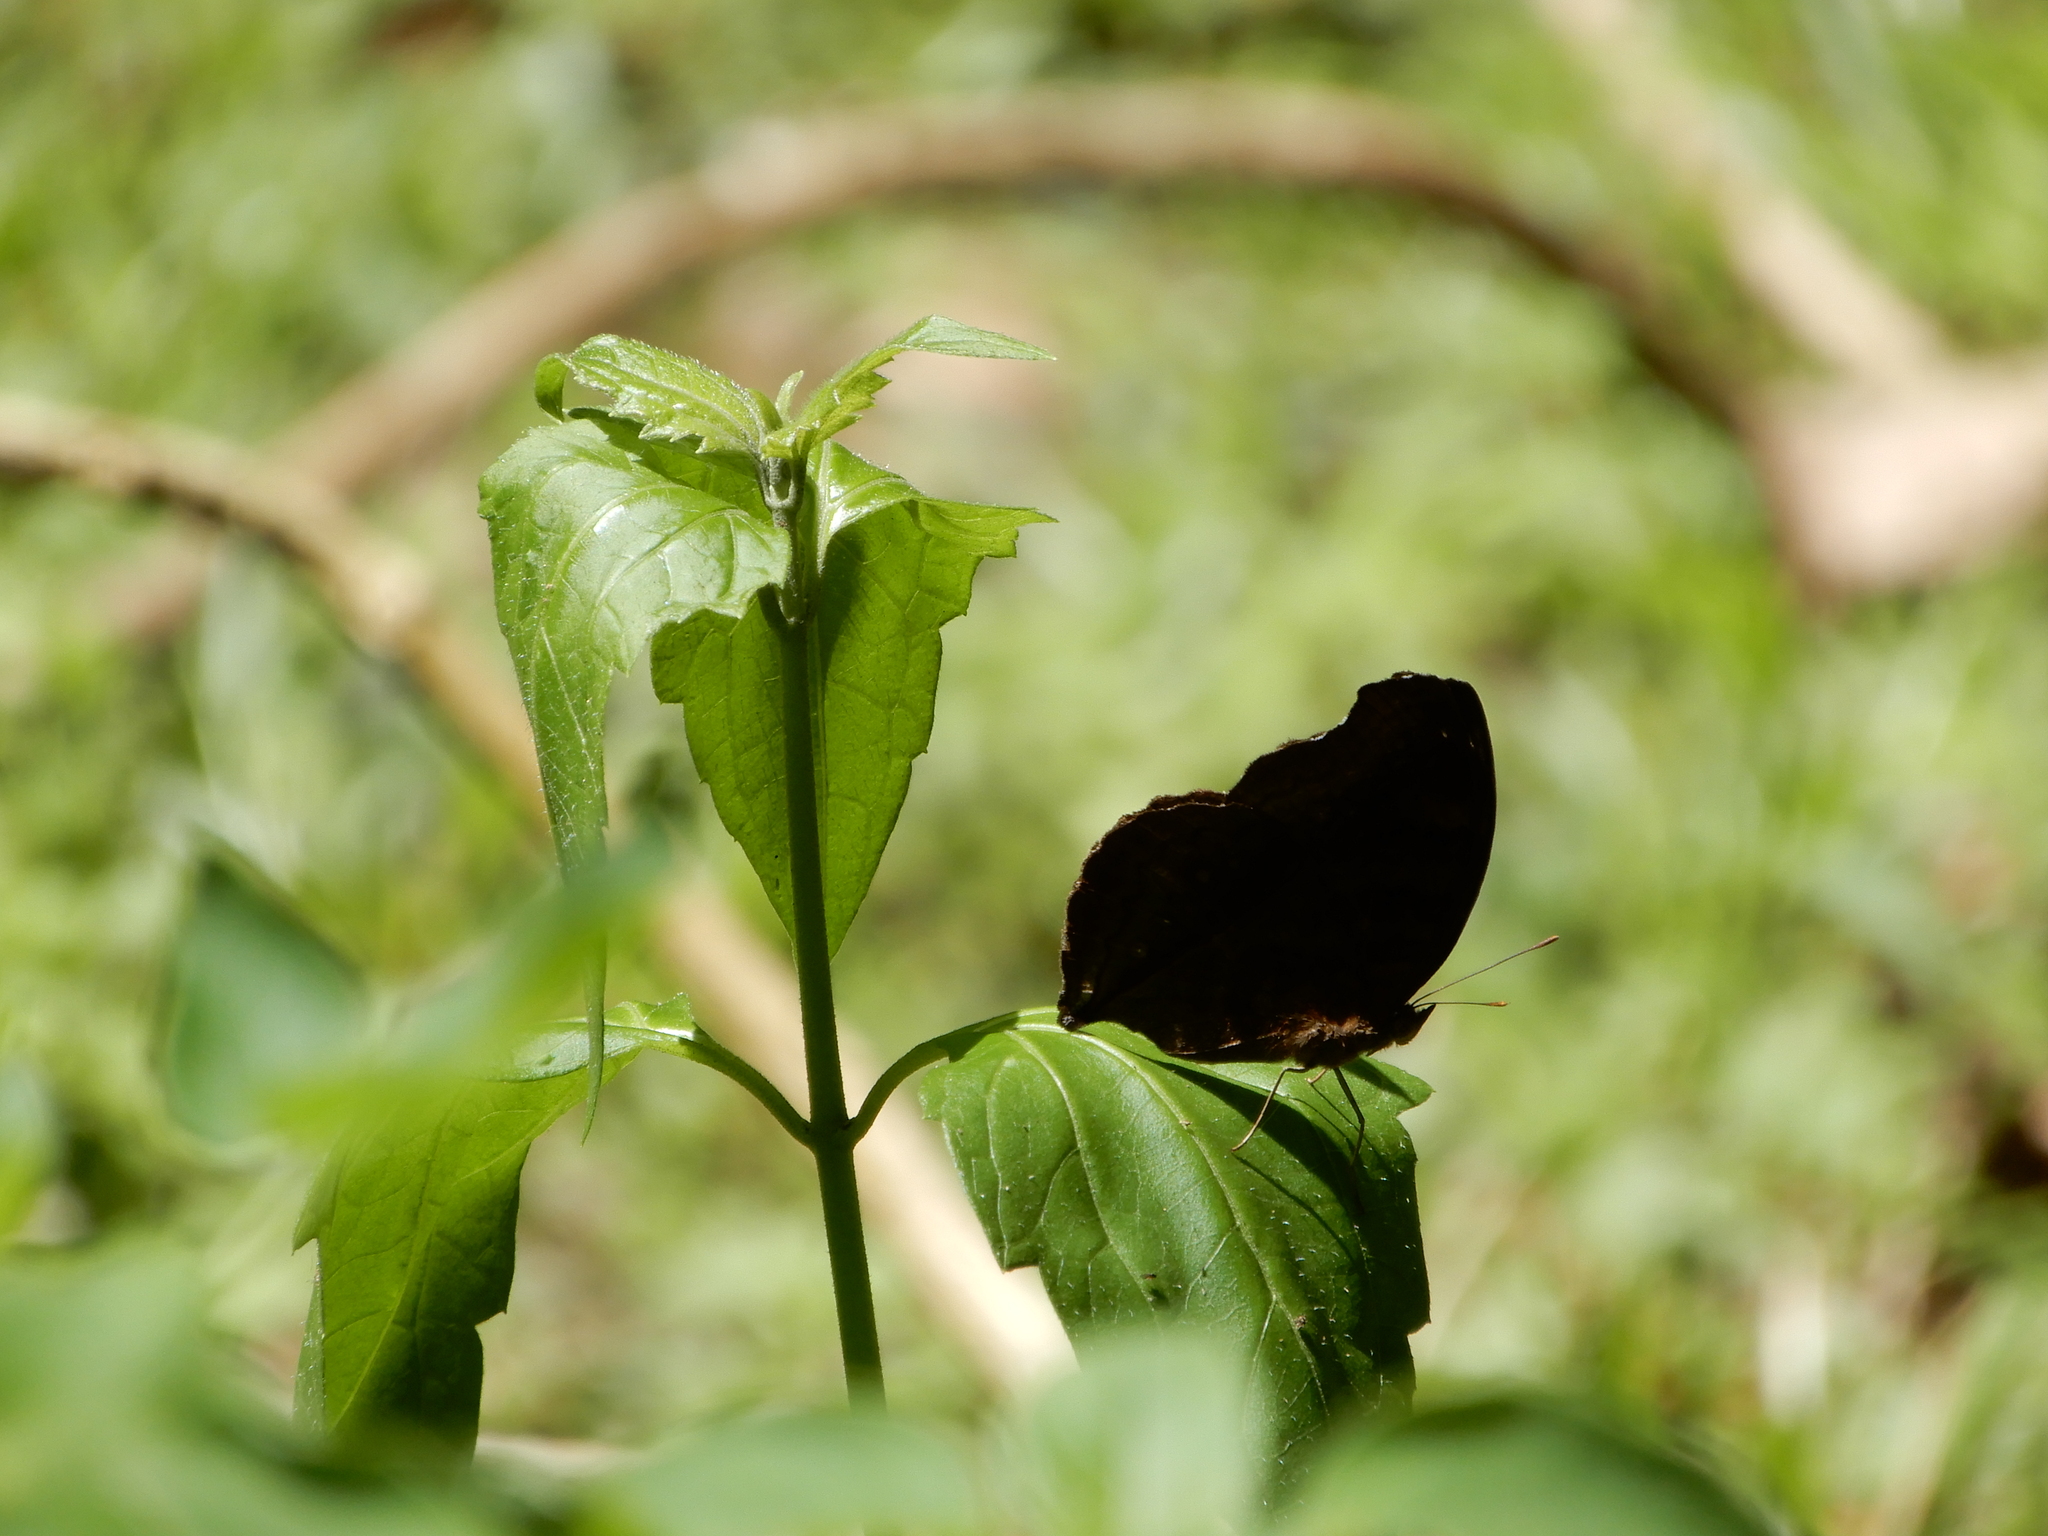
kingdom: Animalia
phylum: Arthropoda
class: Insecta
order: Lepidoptera
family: Nymphalidae
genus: Junonia
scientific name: Junonia iphita
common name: Chocolate pansy
